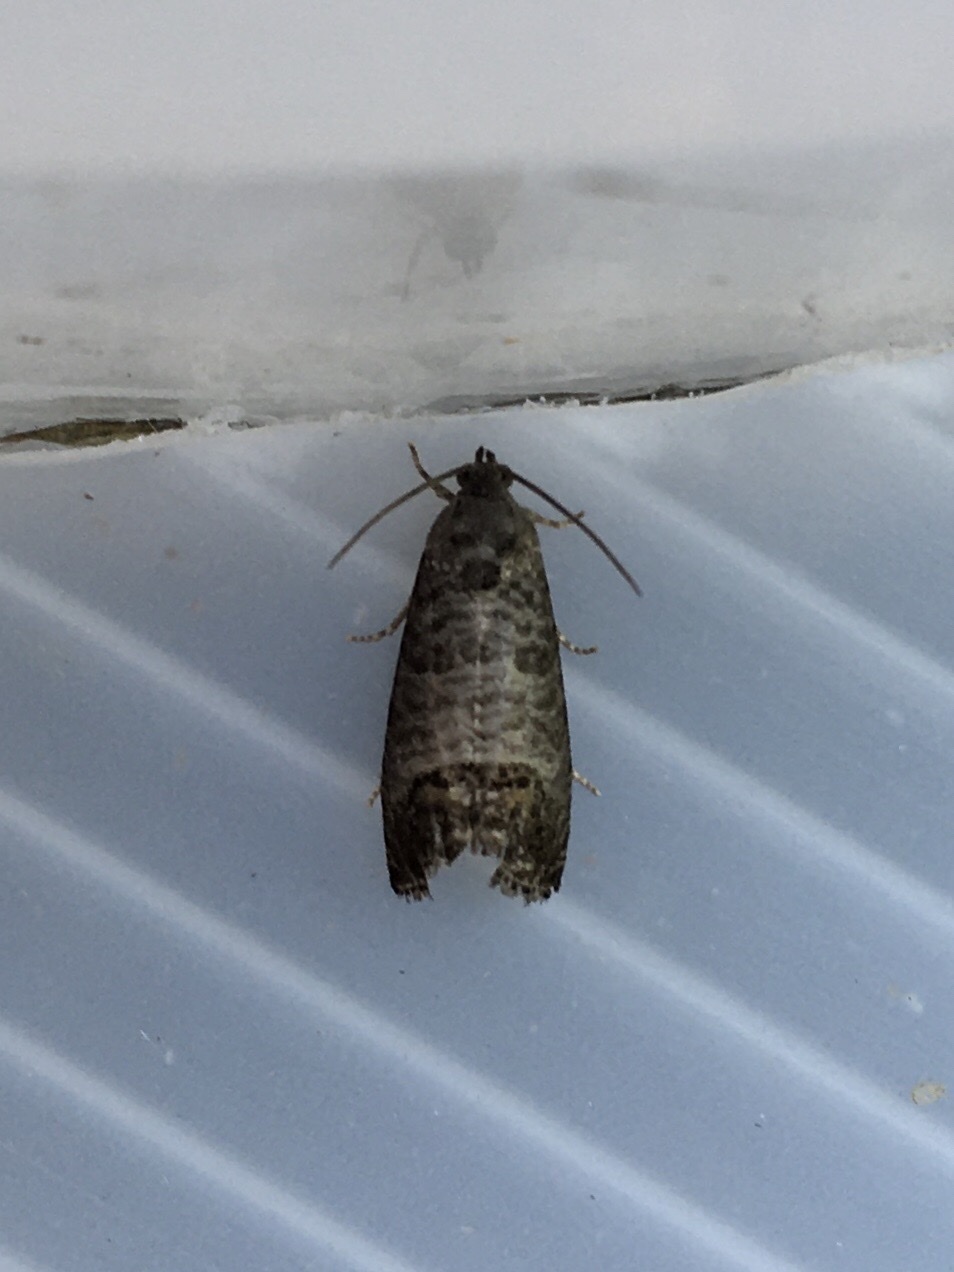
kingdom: Animalia
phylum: Arthropoda
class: Insecta
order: Lepidoptera
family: Tortricidae
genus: Cydia
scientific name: Cydia pomonella
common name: Codling moth
